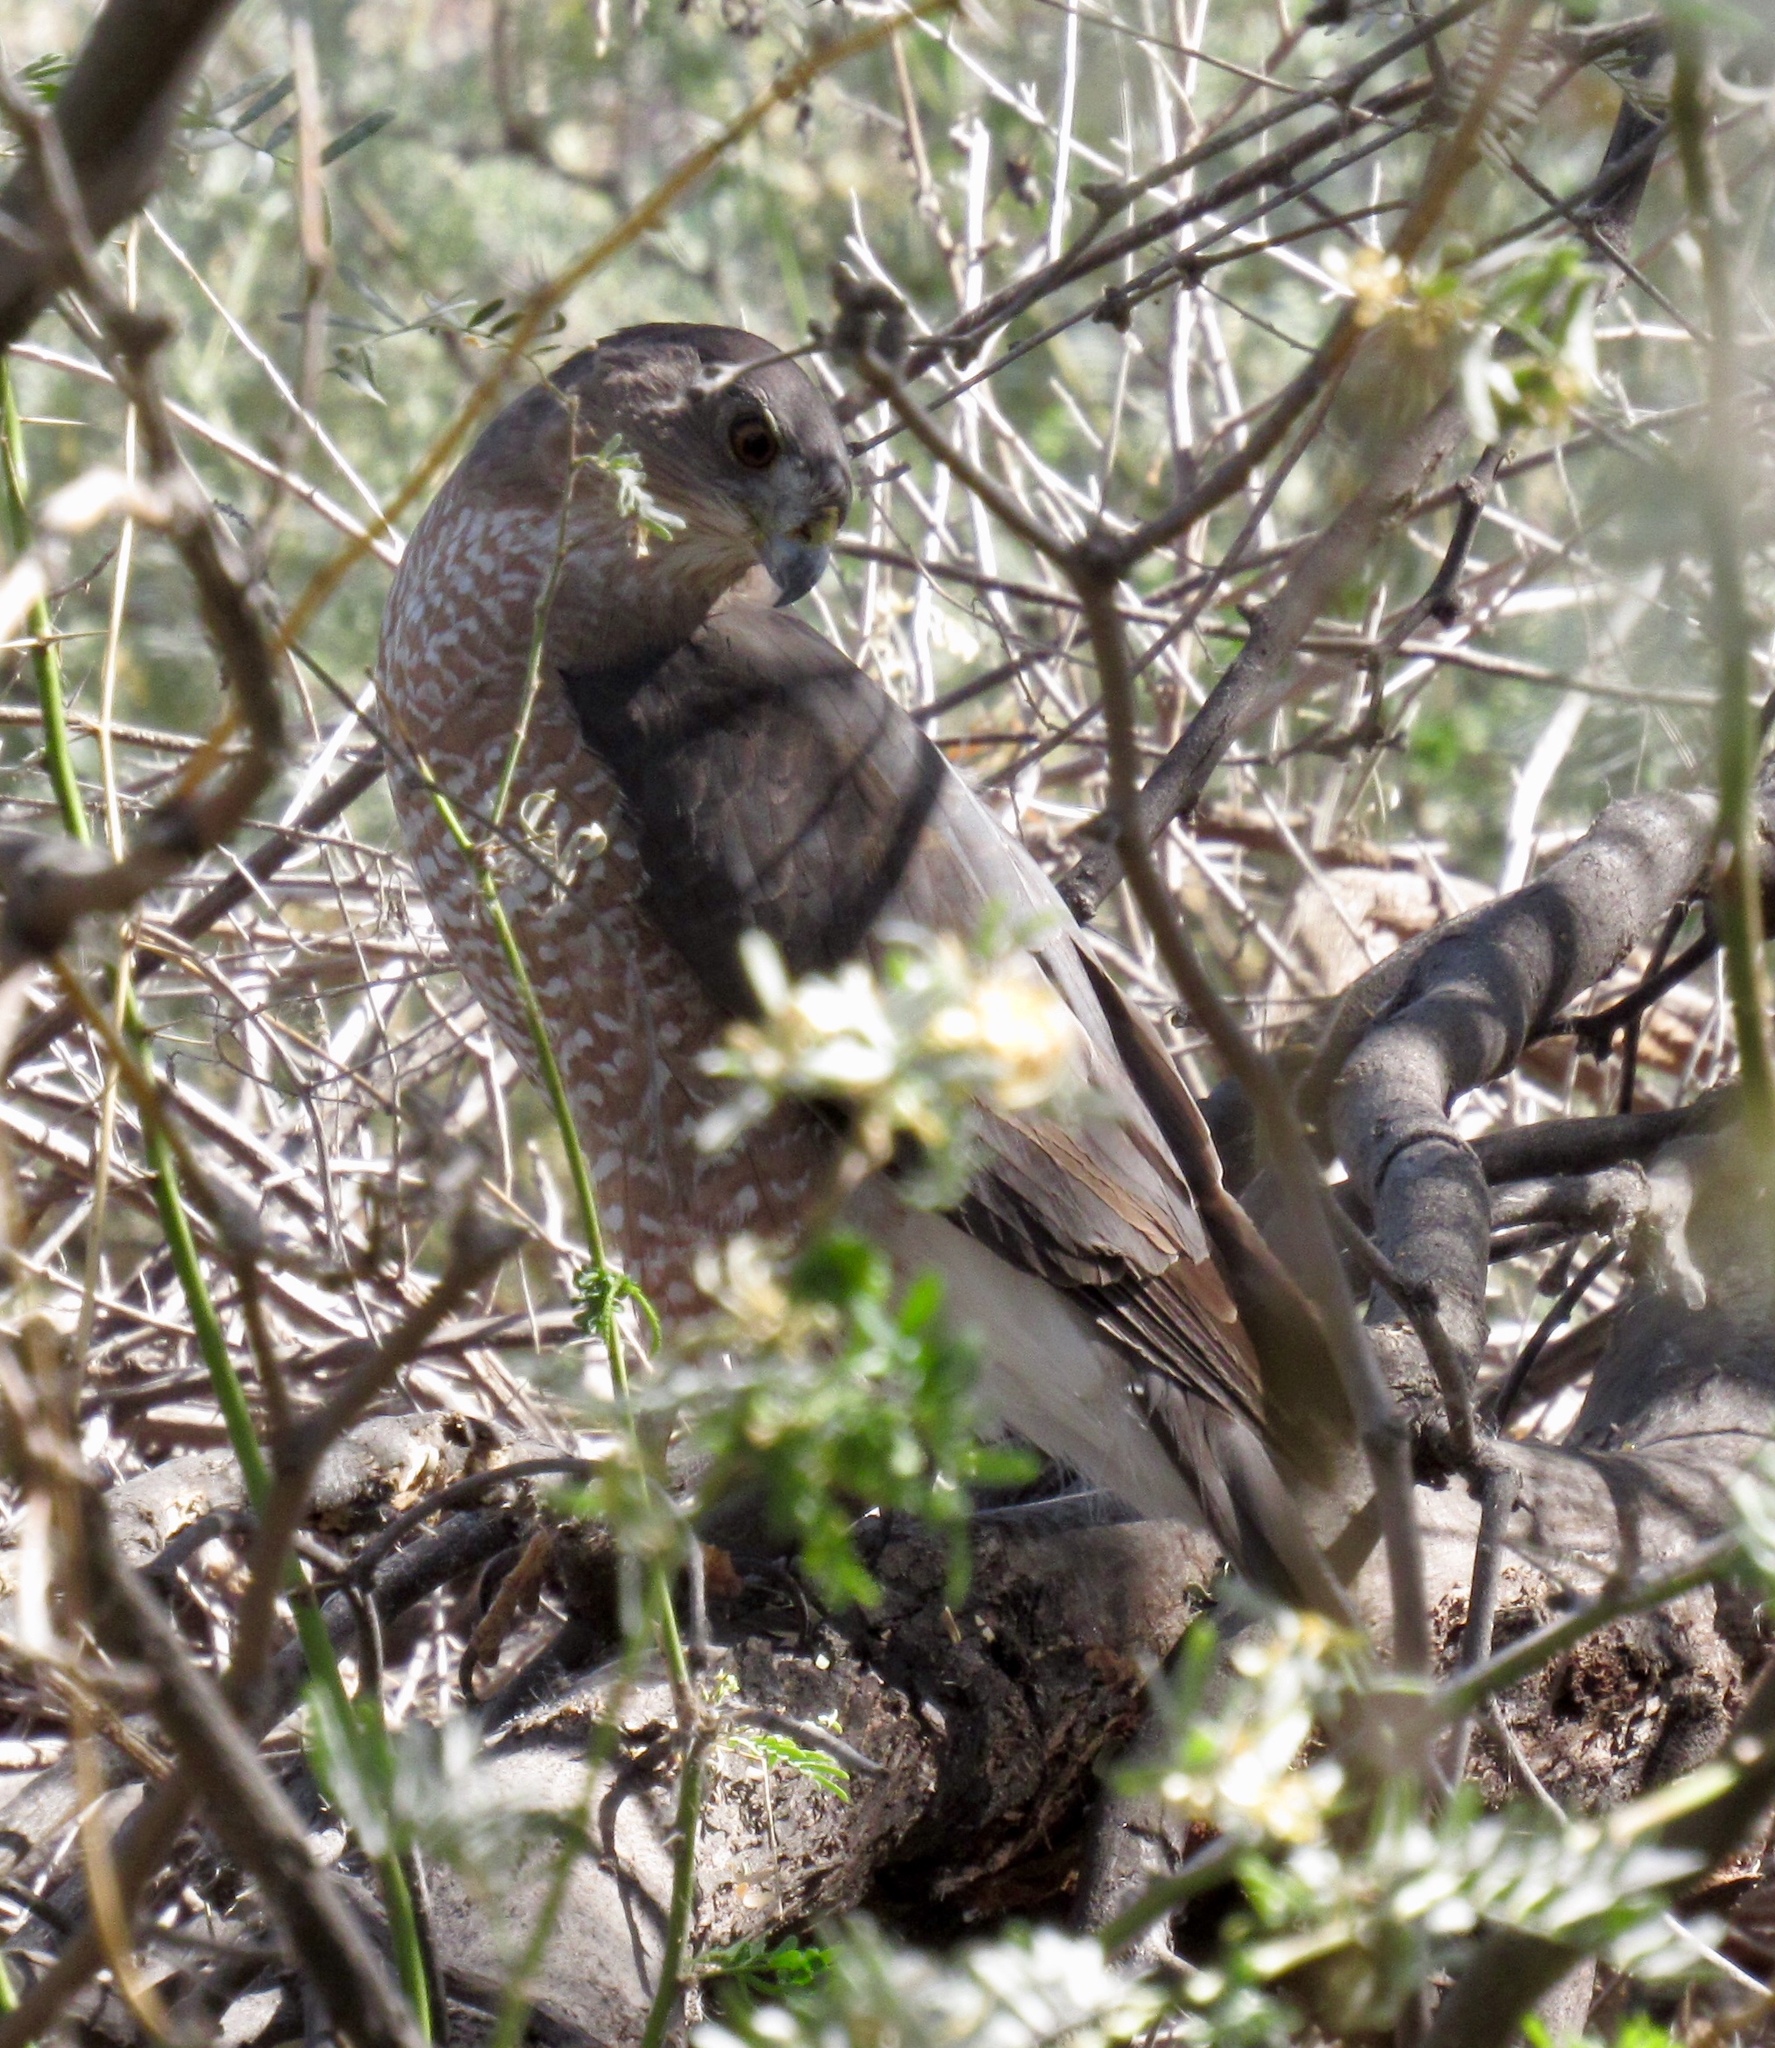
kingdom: Animalia
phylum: Chordata
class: Aves
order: Accipitriformes
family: Accipitridae
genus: Accipiter
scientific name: Accipiter cooperii
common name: Cooper's hawk
